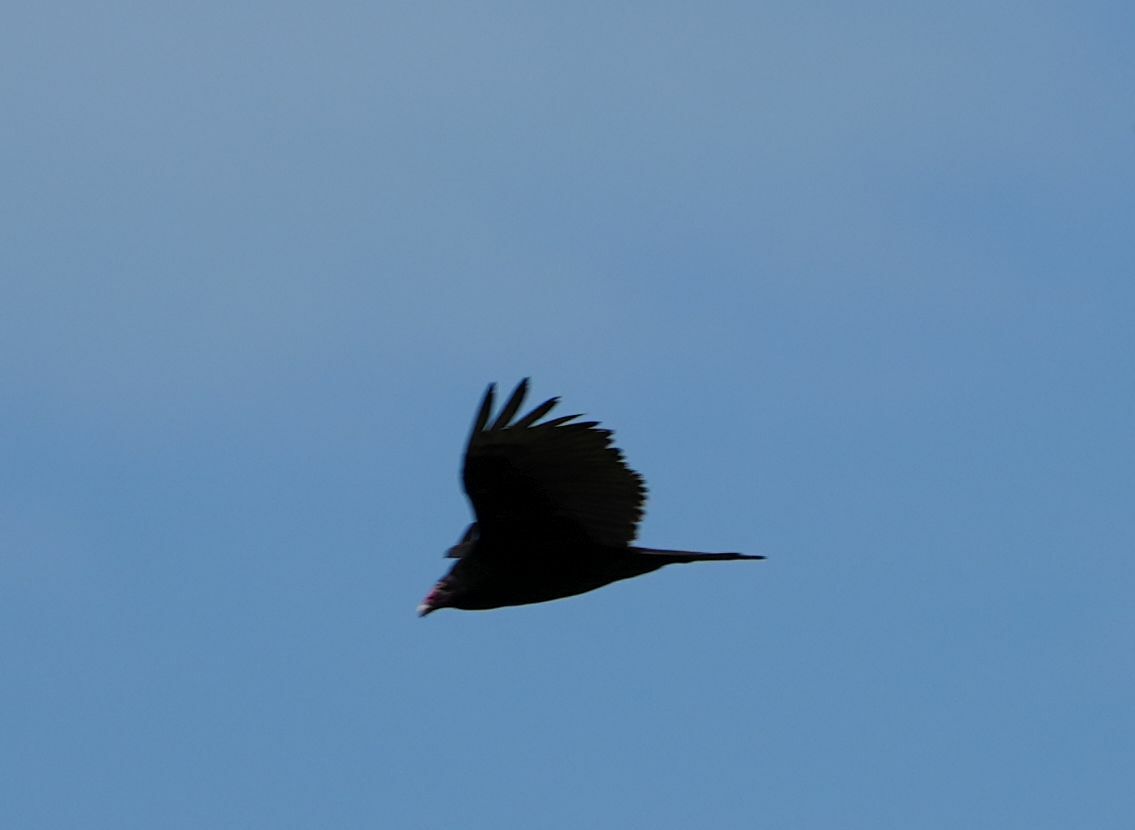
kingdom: Animalia
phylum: Chordata
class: Aves
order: Accipitriformes
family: Cathartidae
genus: Cathartes
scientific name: Cathartes aura
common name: Turkey vulture
